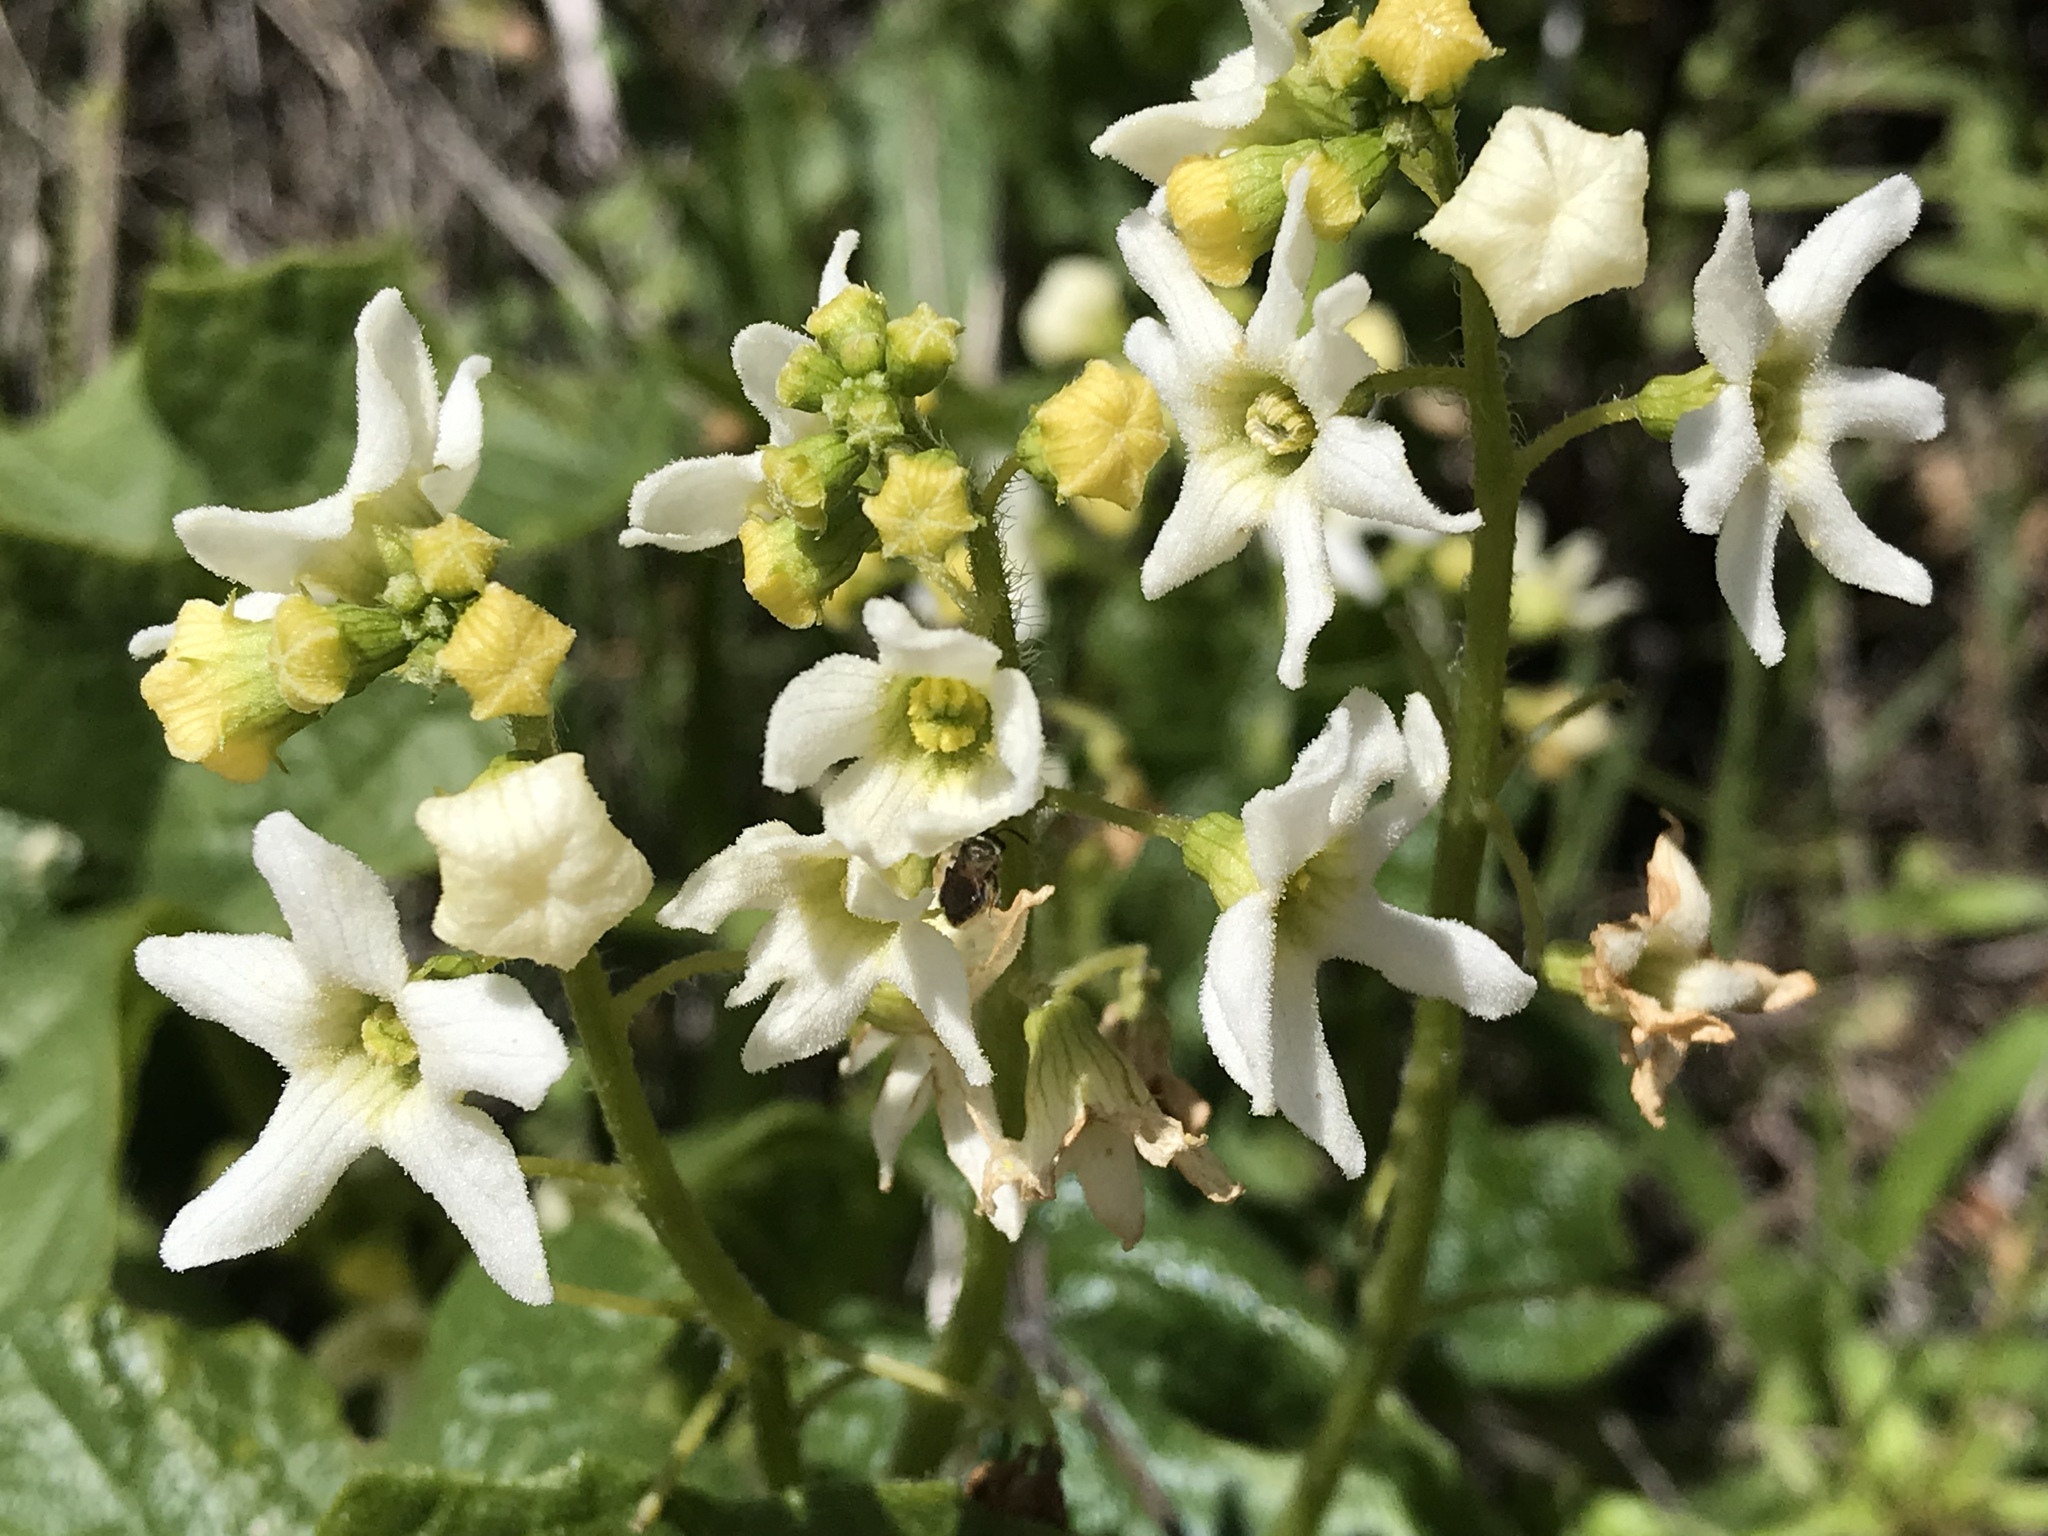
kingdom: Plantae
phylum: Tracheophyta
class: Magnoliopsida
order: Cucurbitales
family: Cucurbitaceae
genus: Marah
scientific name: Marah fabacea
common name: California manroot
